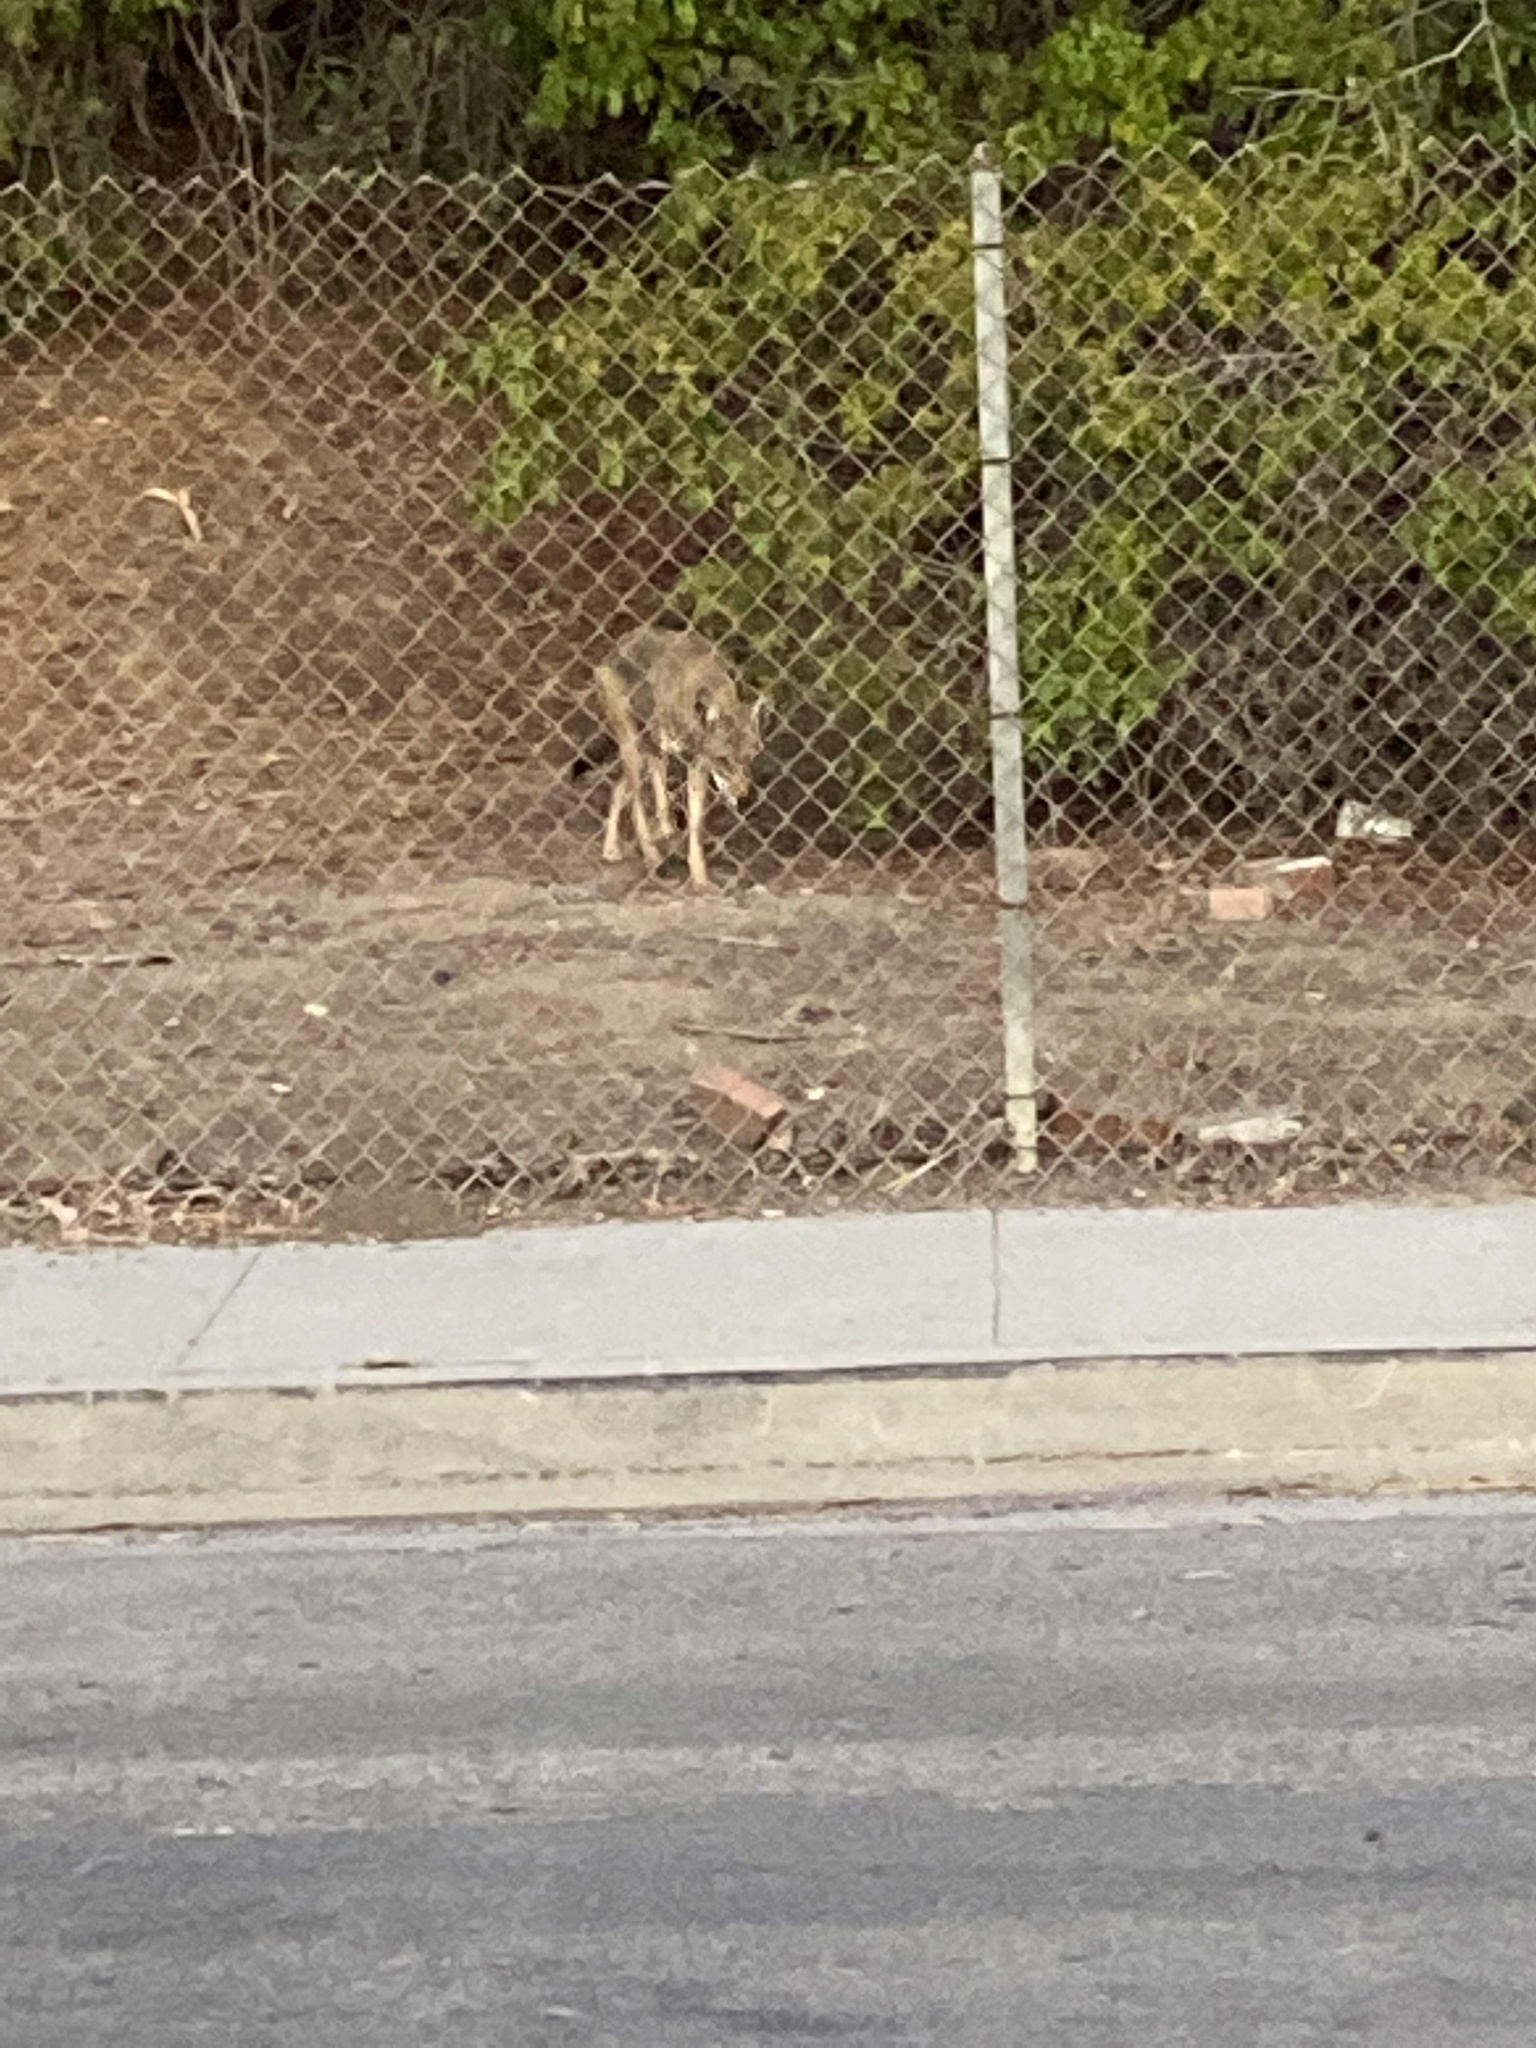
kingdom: Animalia
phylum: Chordata
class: Mammalia
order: Carnivora
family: Canidae
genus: Canis
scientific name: Canis latrans
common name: Coyote
